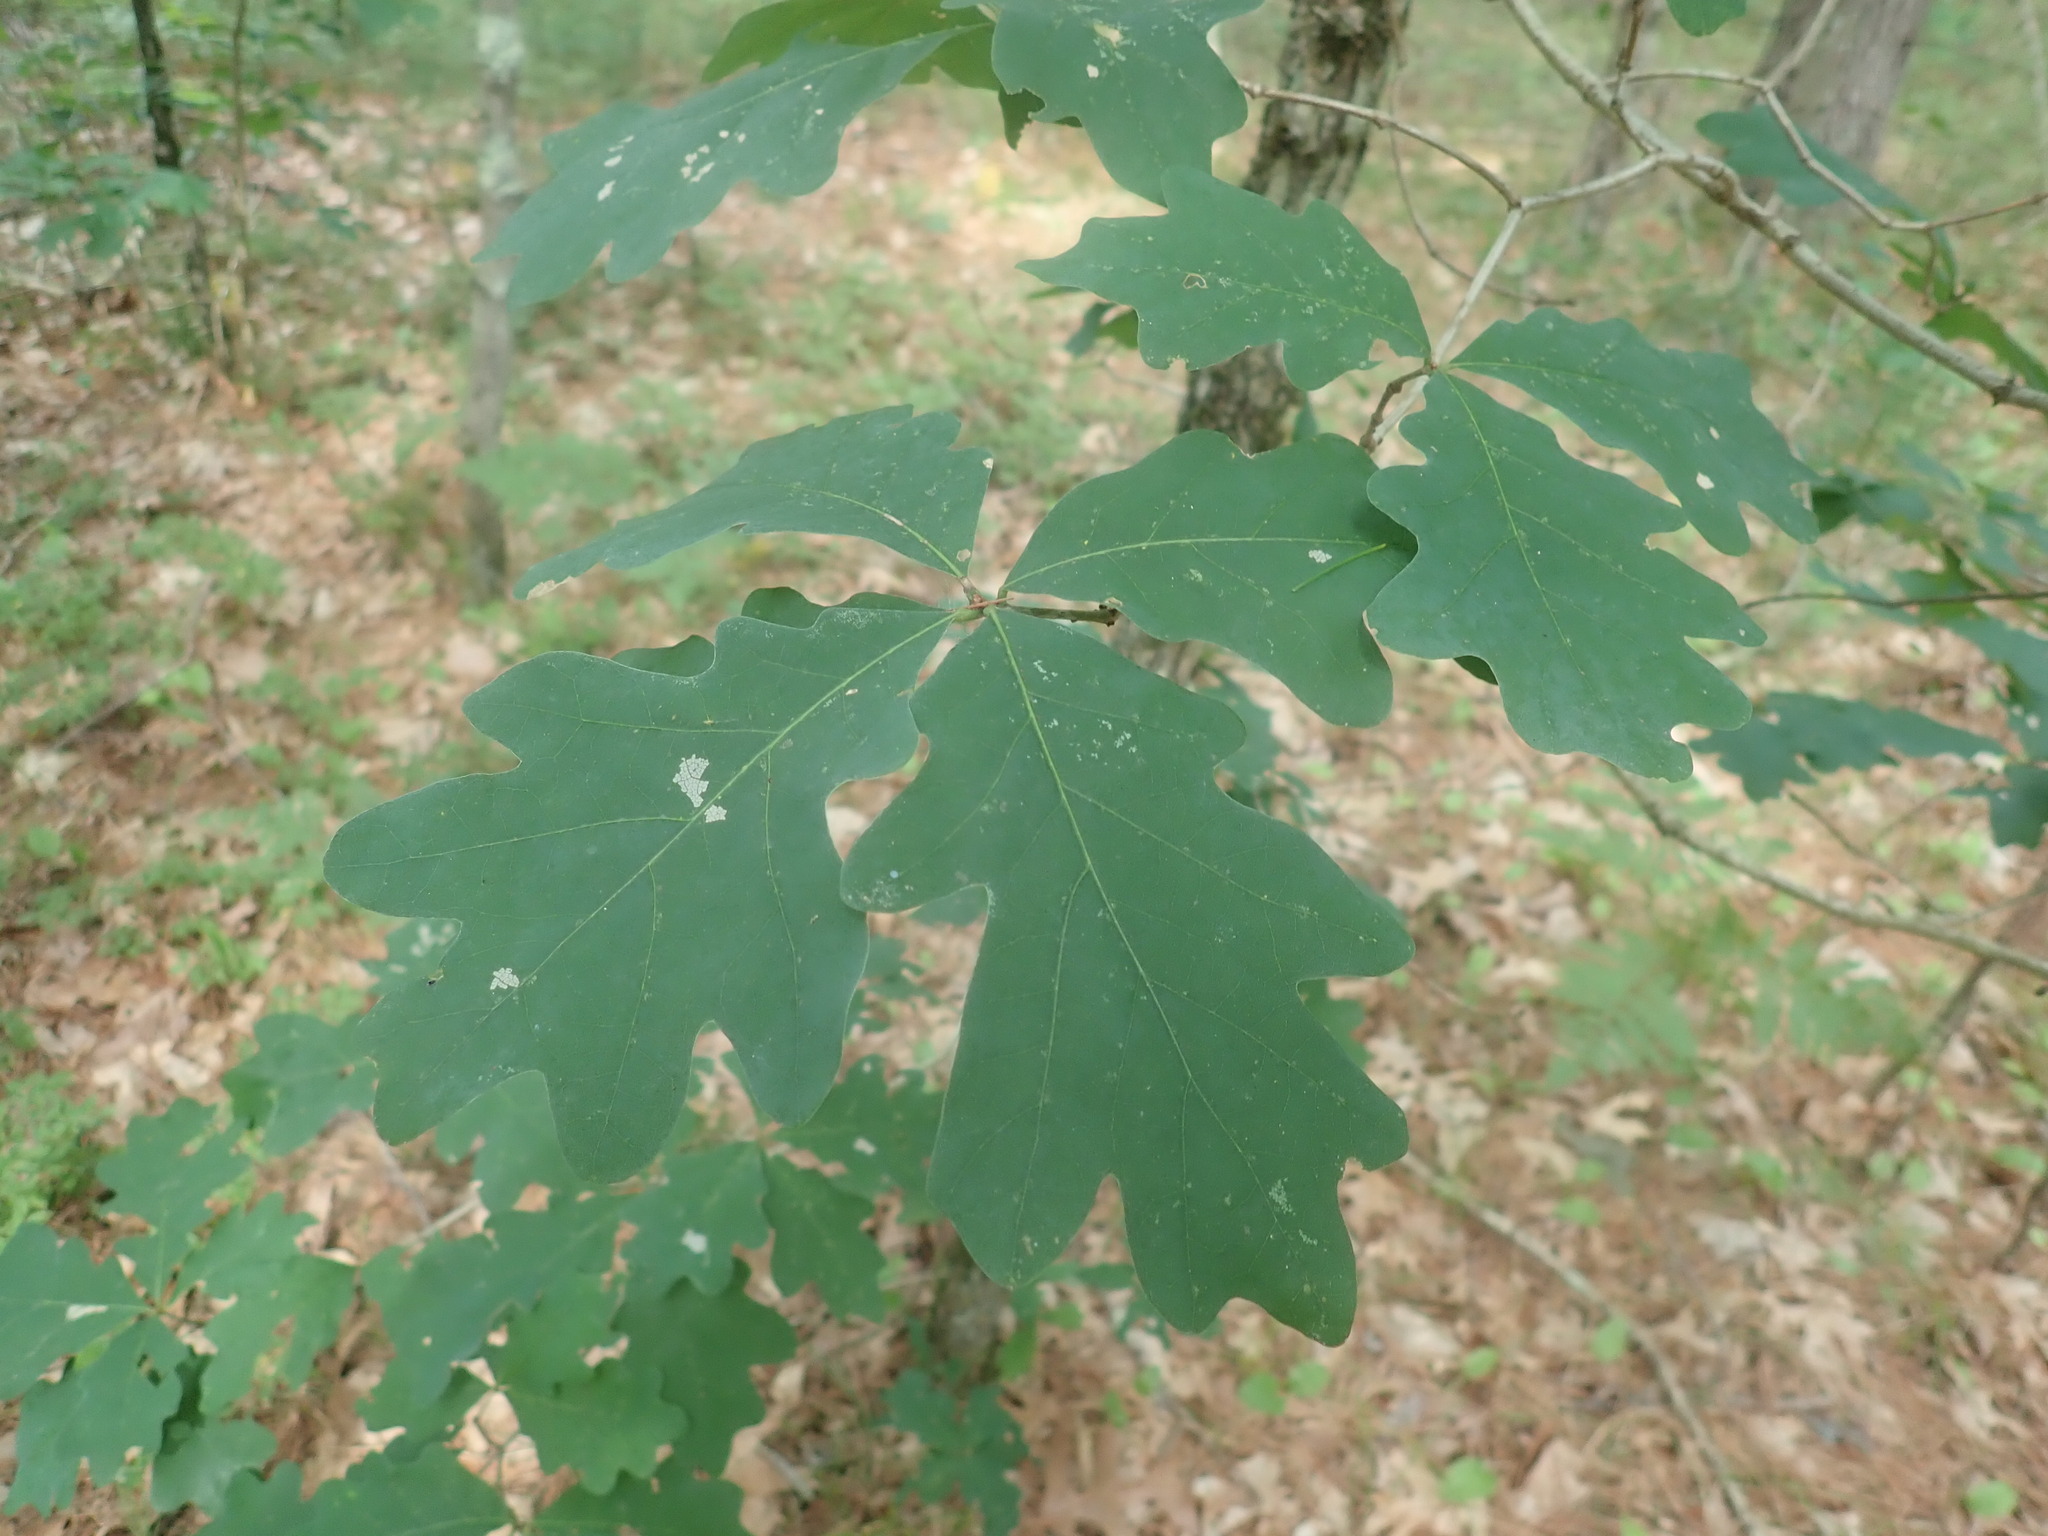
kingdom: Plantae
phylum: Tracheophyta
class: Magnoliopsida
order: Fagales
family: Fagaceae
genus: Quercus
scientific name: Quercus alba
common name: White oak
